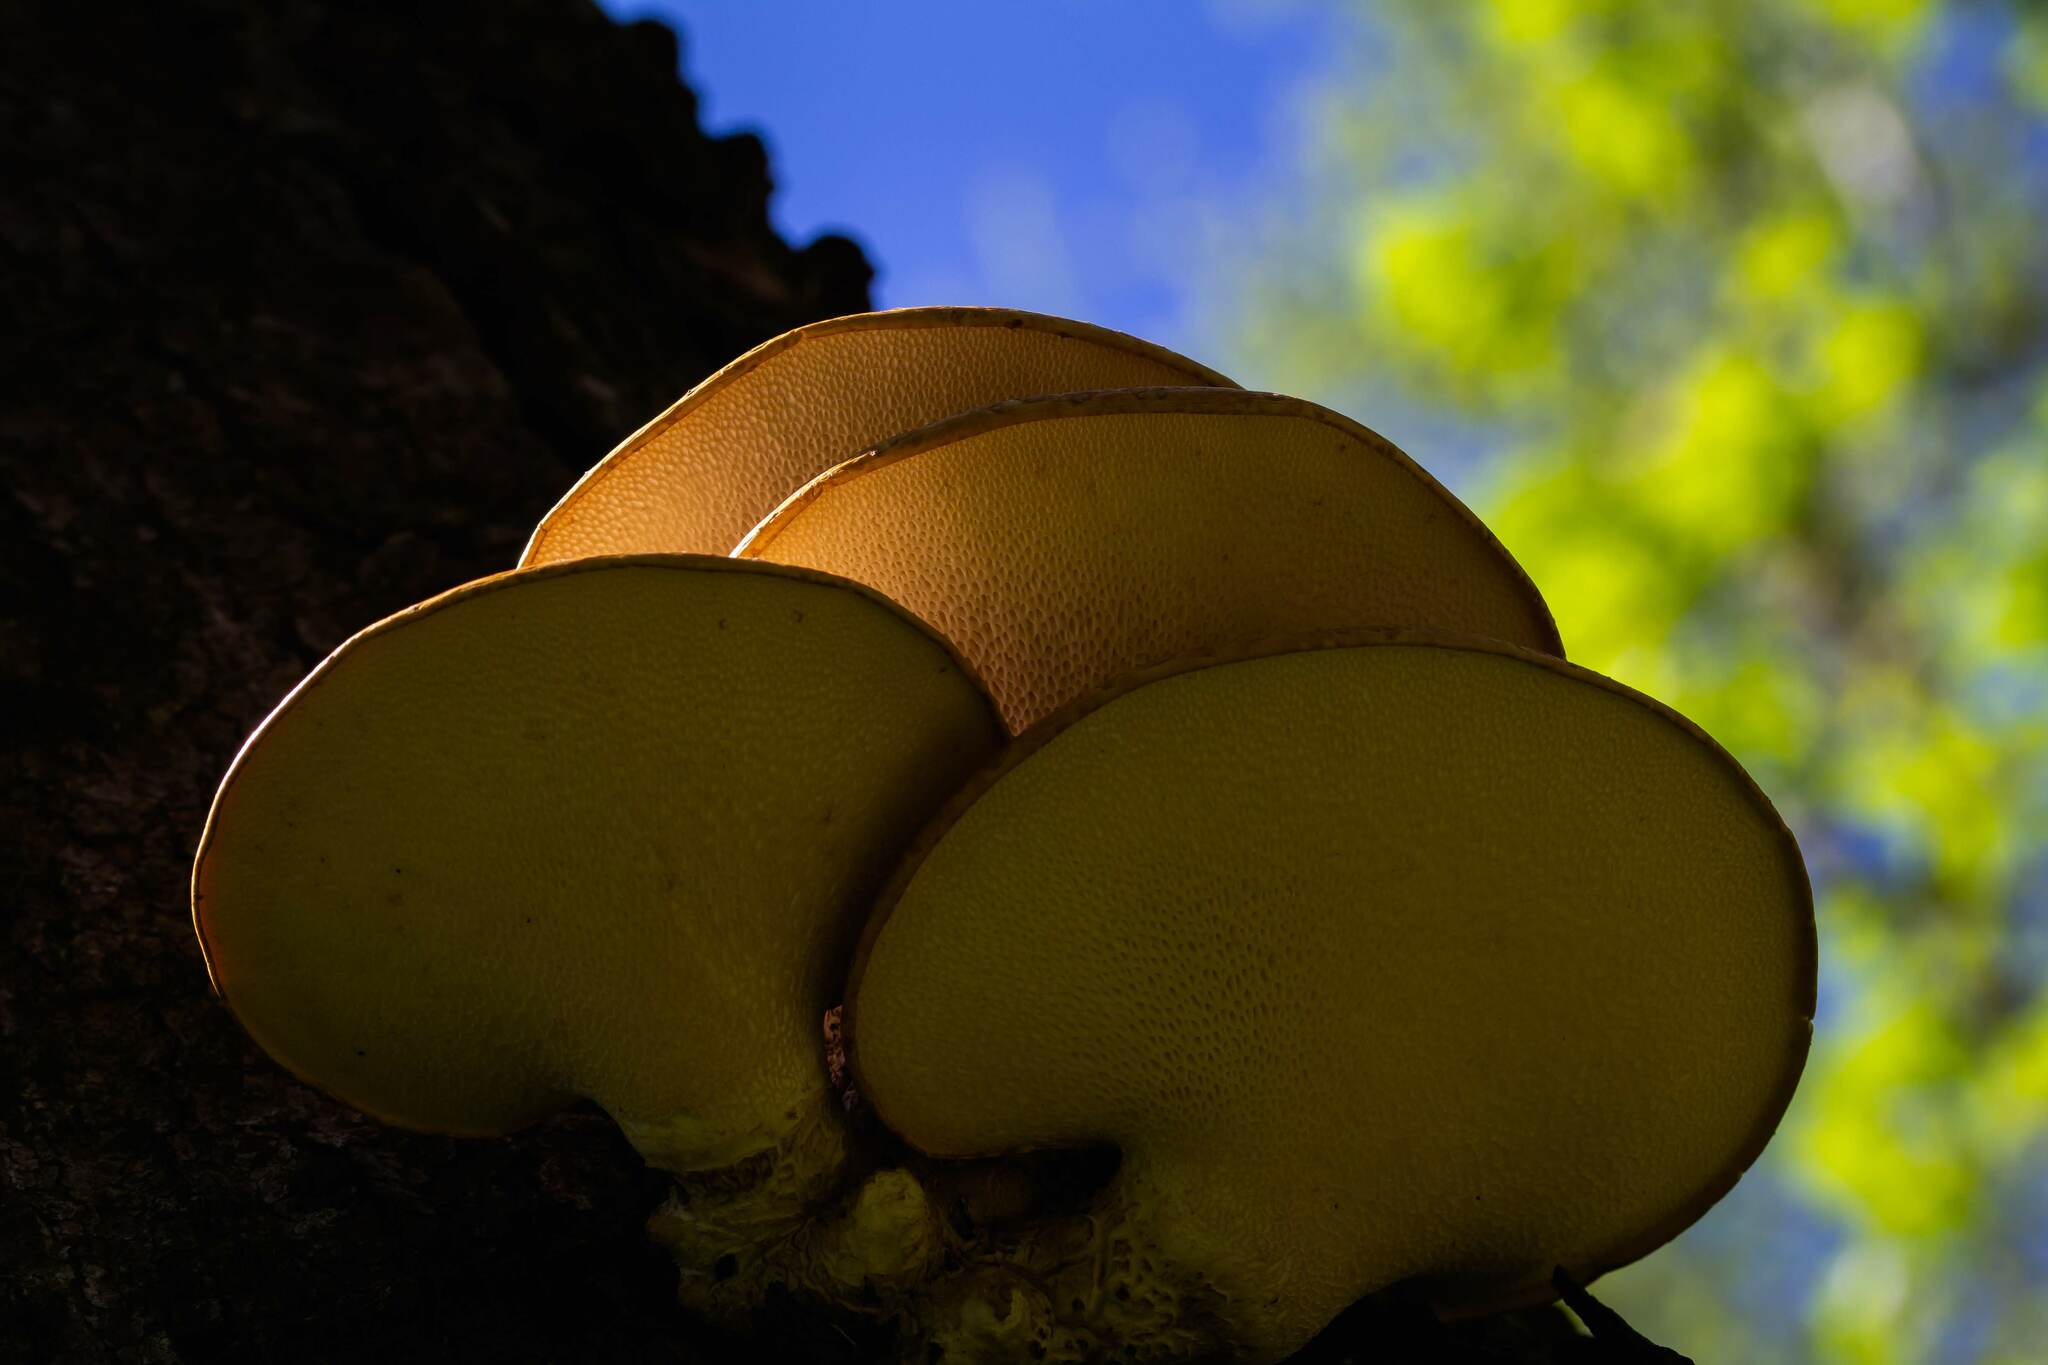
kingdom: Fungi
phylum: Basidiomycota
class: Agaricomycetes
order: Polyporales
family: Polyporaceae
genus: Cerioporus
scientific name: Cerioporus squamosus
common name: Dryad's saddle
